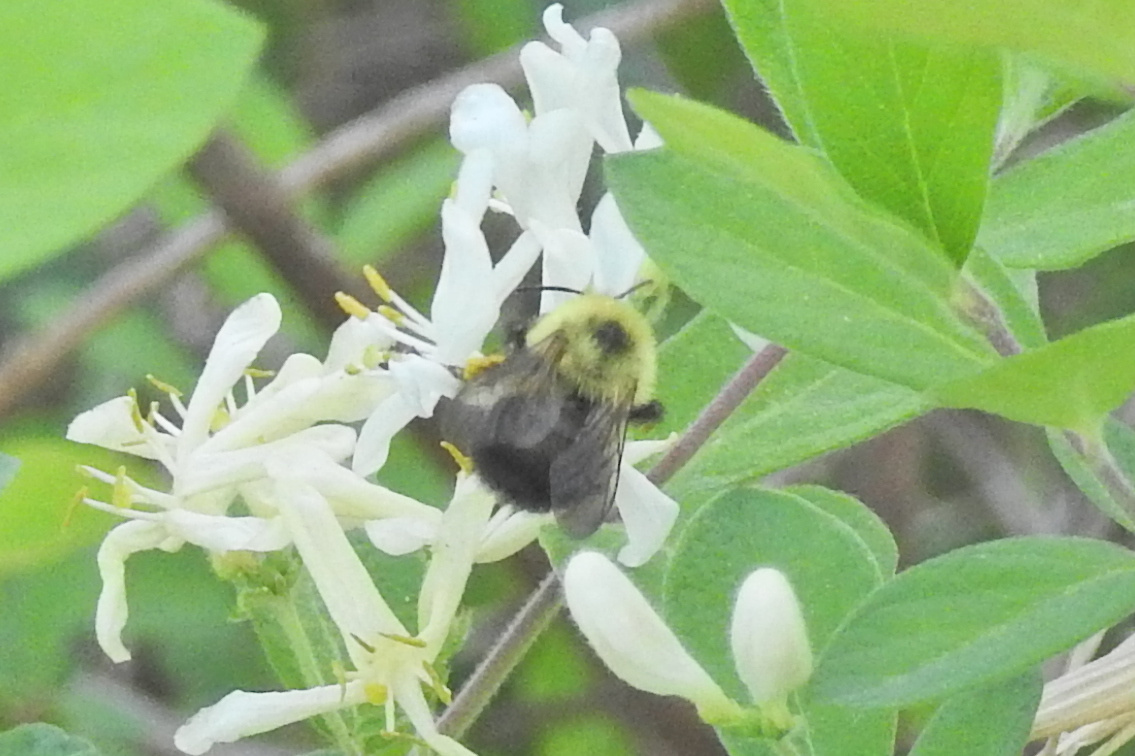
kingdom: Animalia
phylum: Arthropoda
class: Insecta
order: Hymenoptera
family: Apidae
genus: Bombus
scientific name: Bombus bimaculatus
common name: Two-spotted bumble bee
